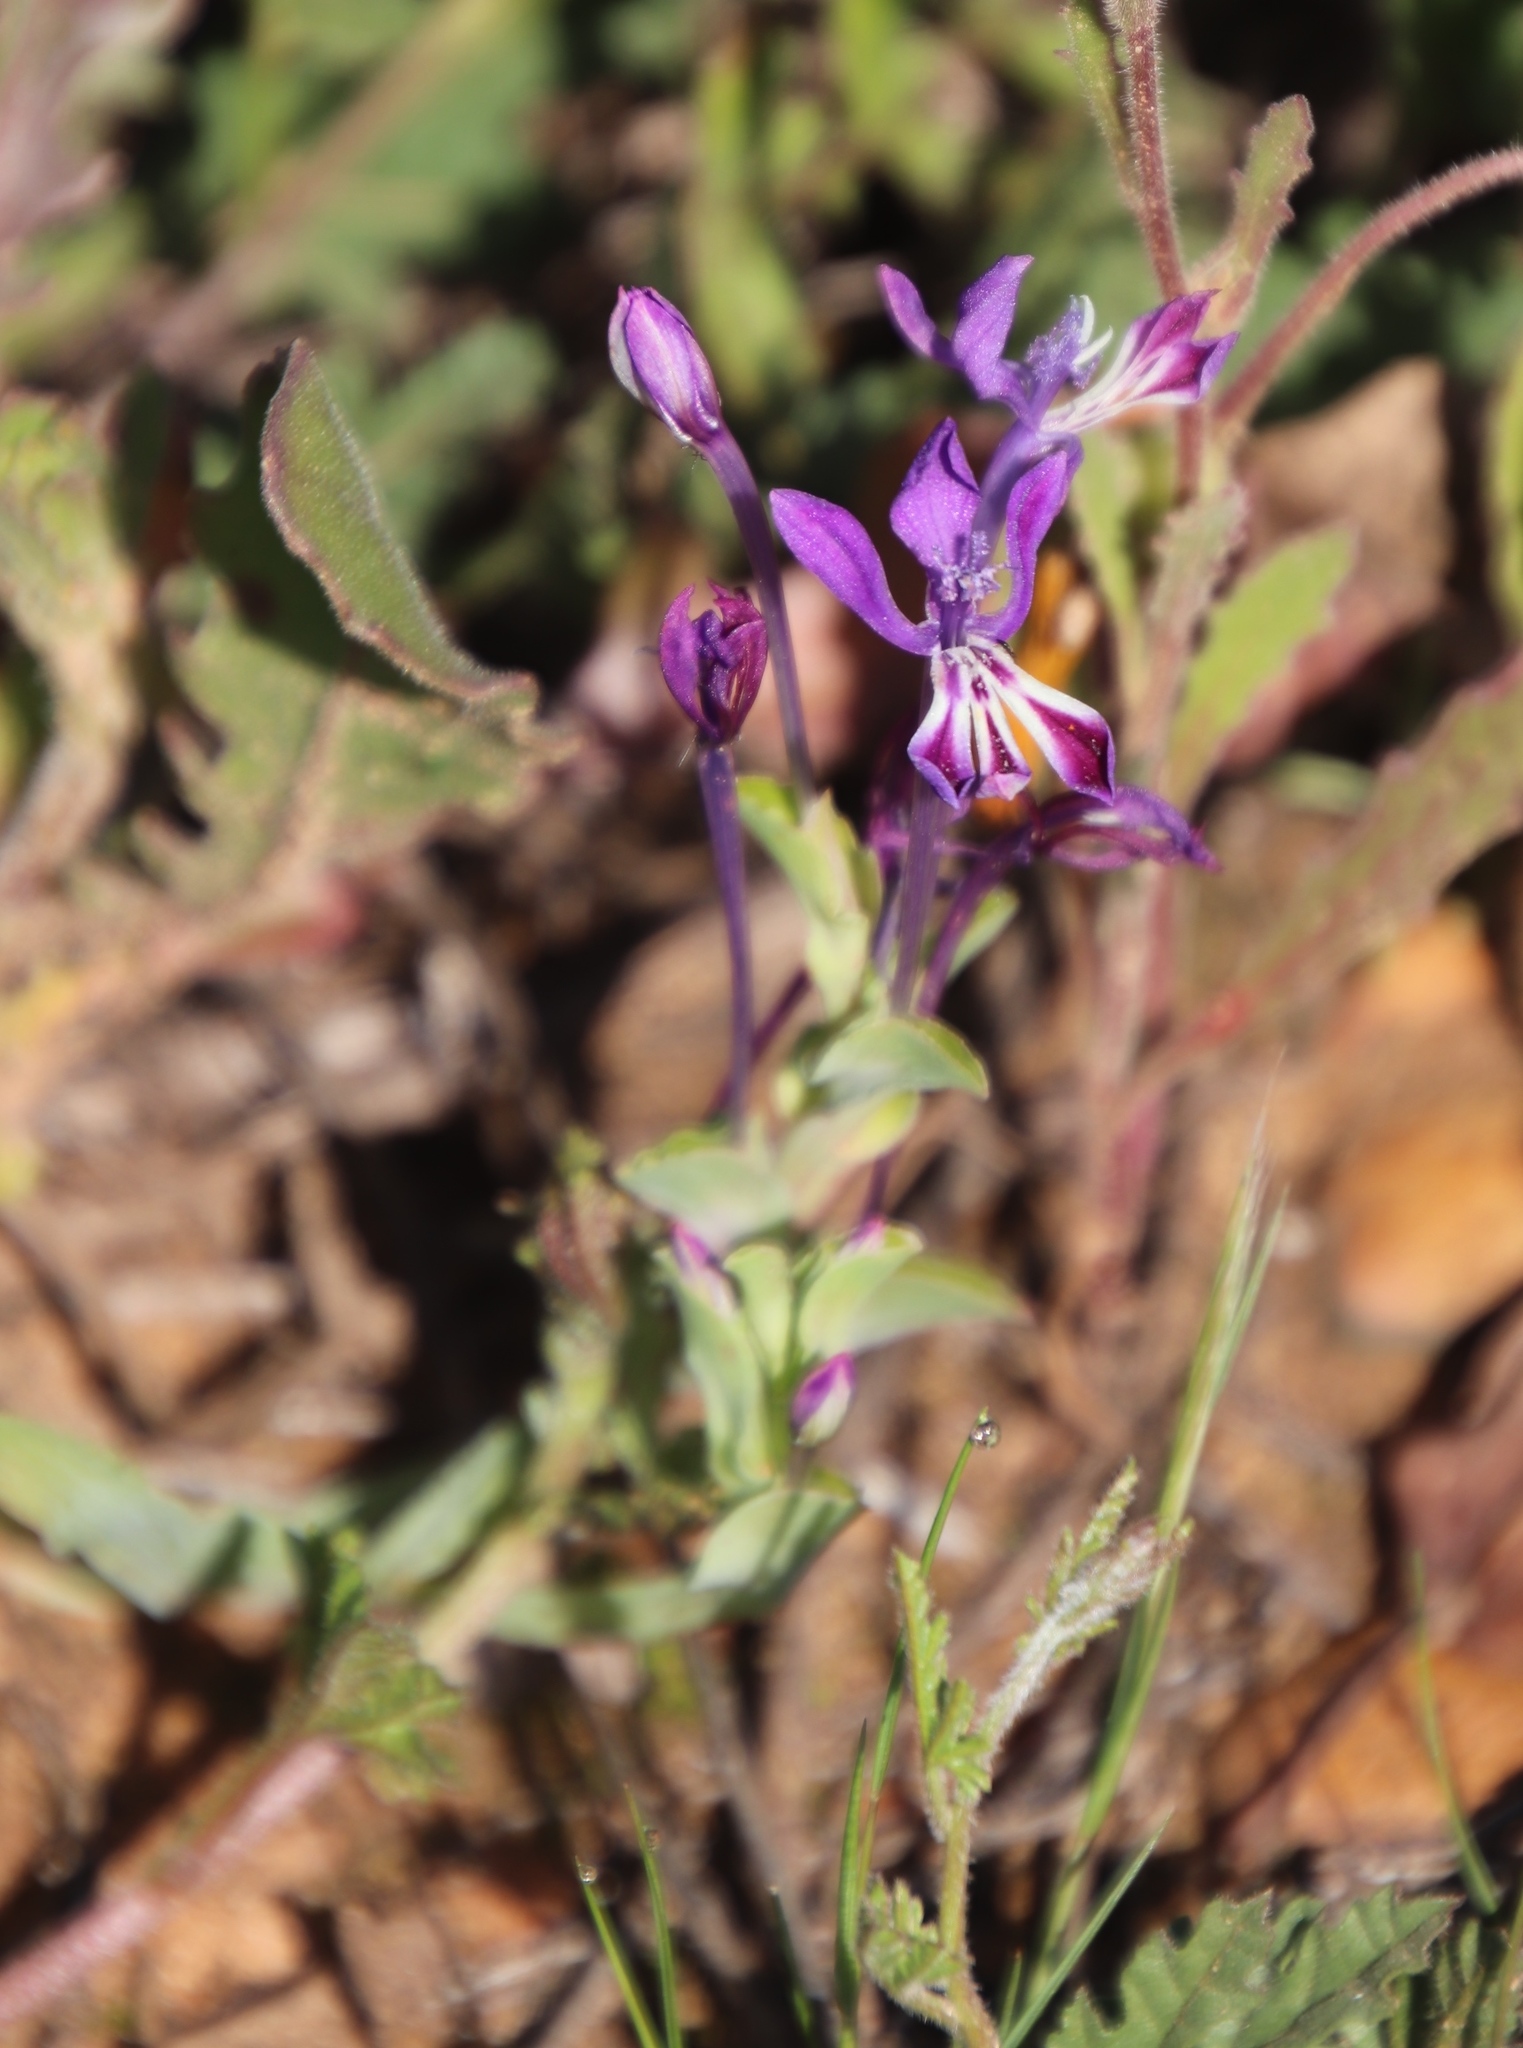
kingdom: Plantae
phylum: Tracheophyta
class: Liliopsida
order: Asparagales
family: Iridaceae
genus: Lapeirousia
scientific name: Lapeirousia jacquinii
